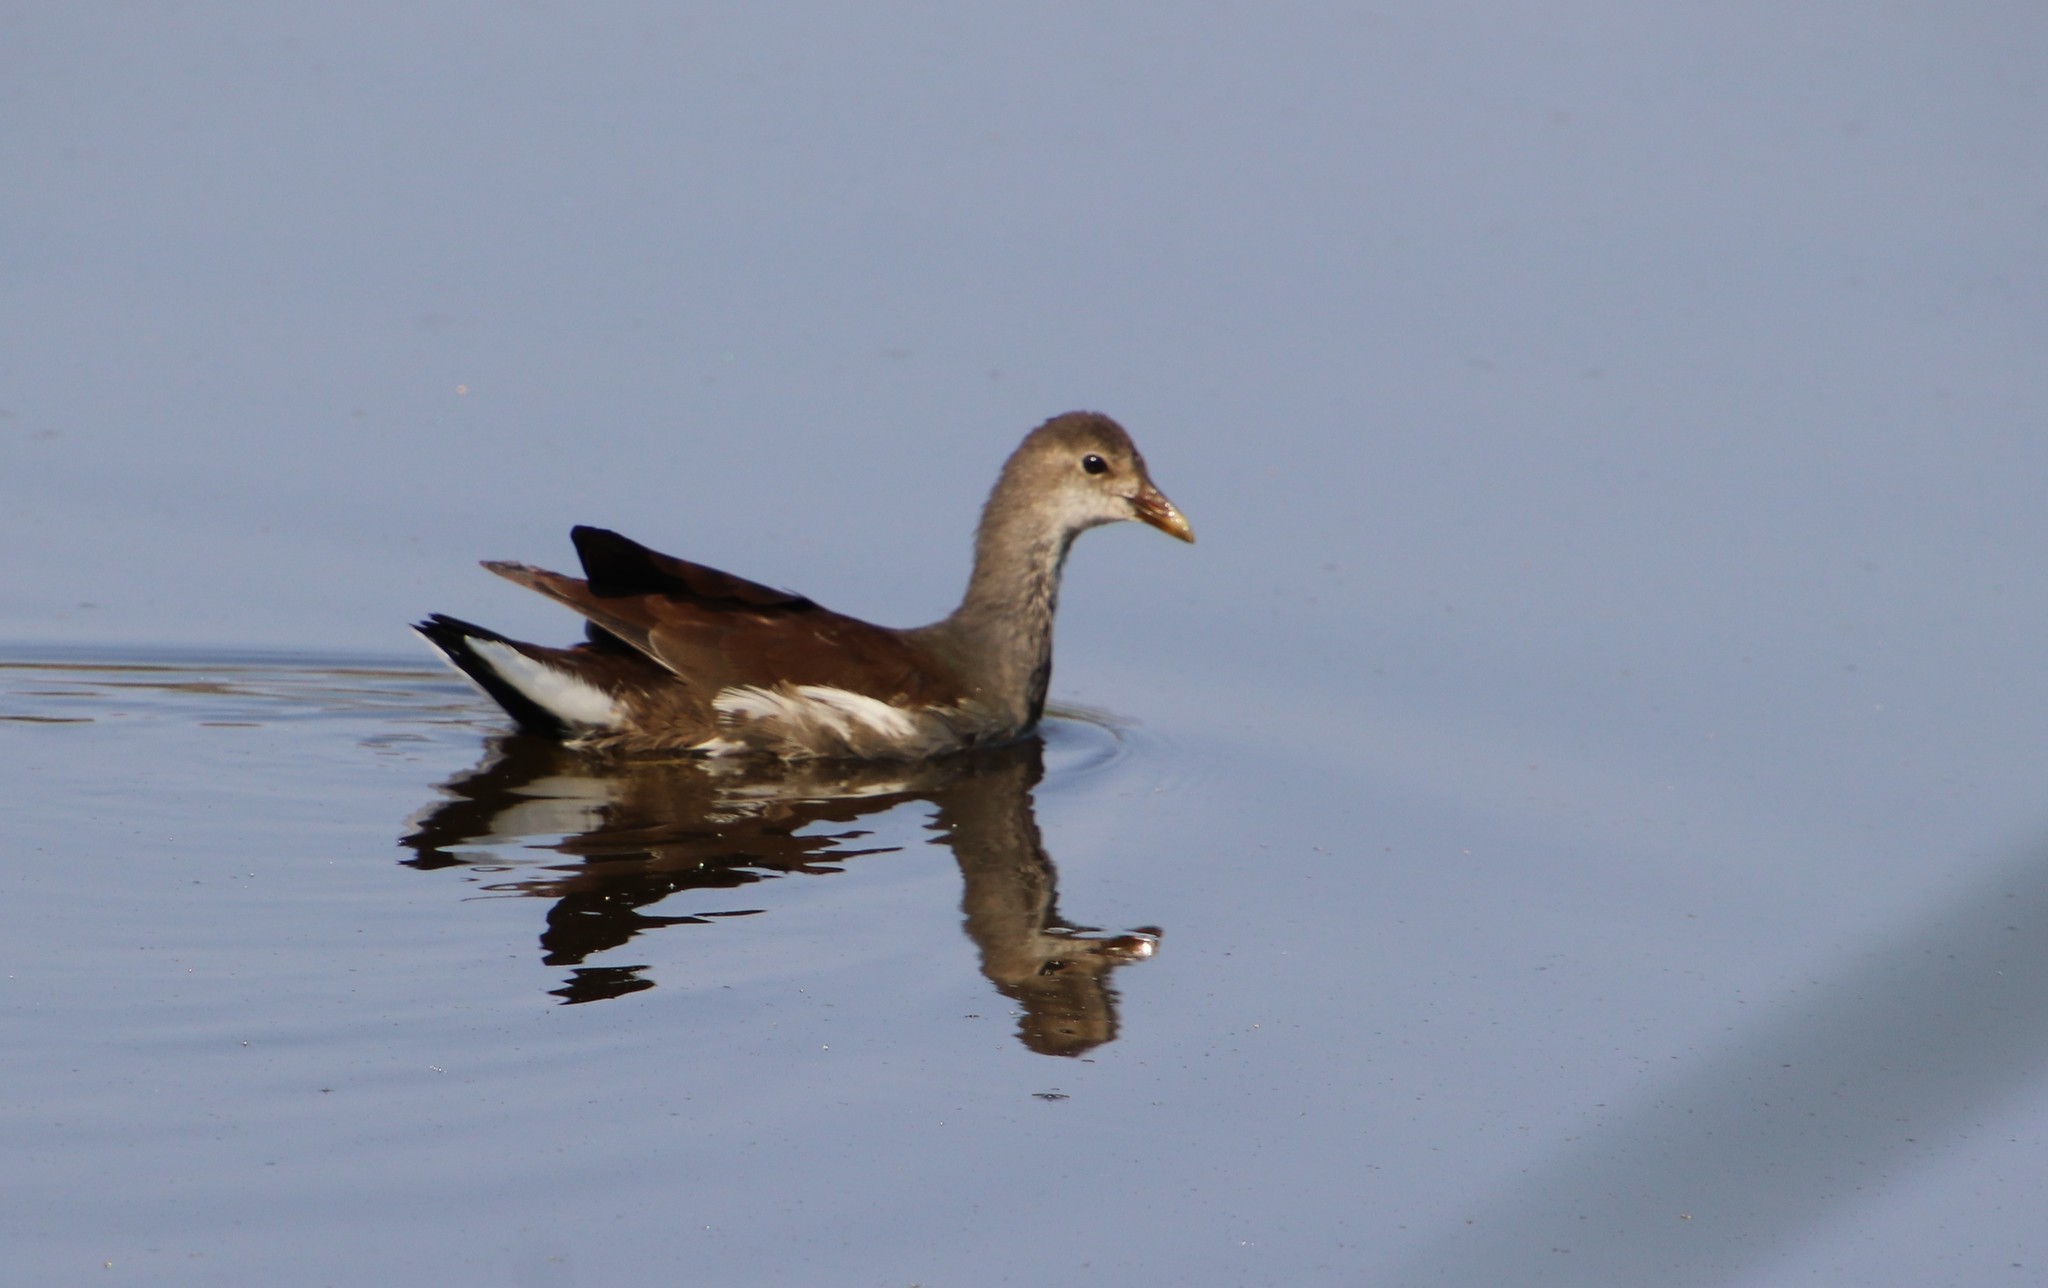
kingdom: Animalia
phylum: Chordata
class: Aves
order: Gruiformes
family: Rallidae
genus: Gallinula
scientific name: Gallinula chloropus
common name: Common moorhen
